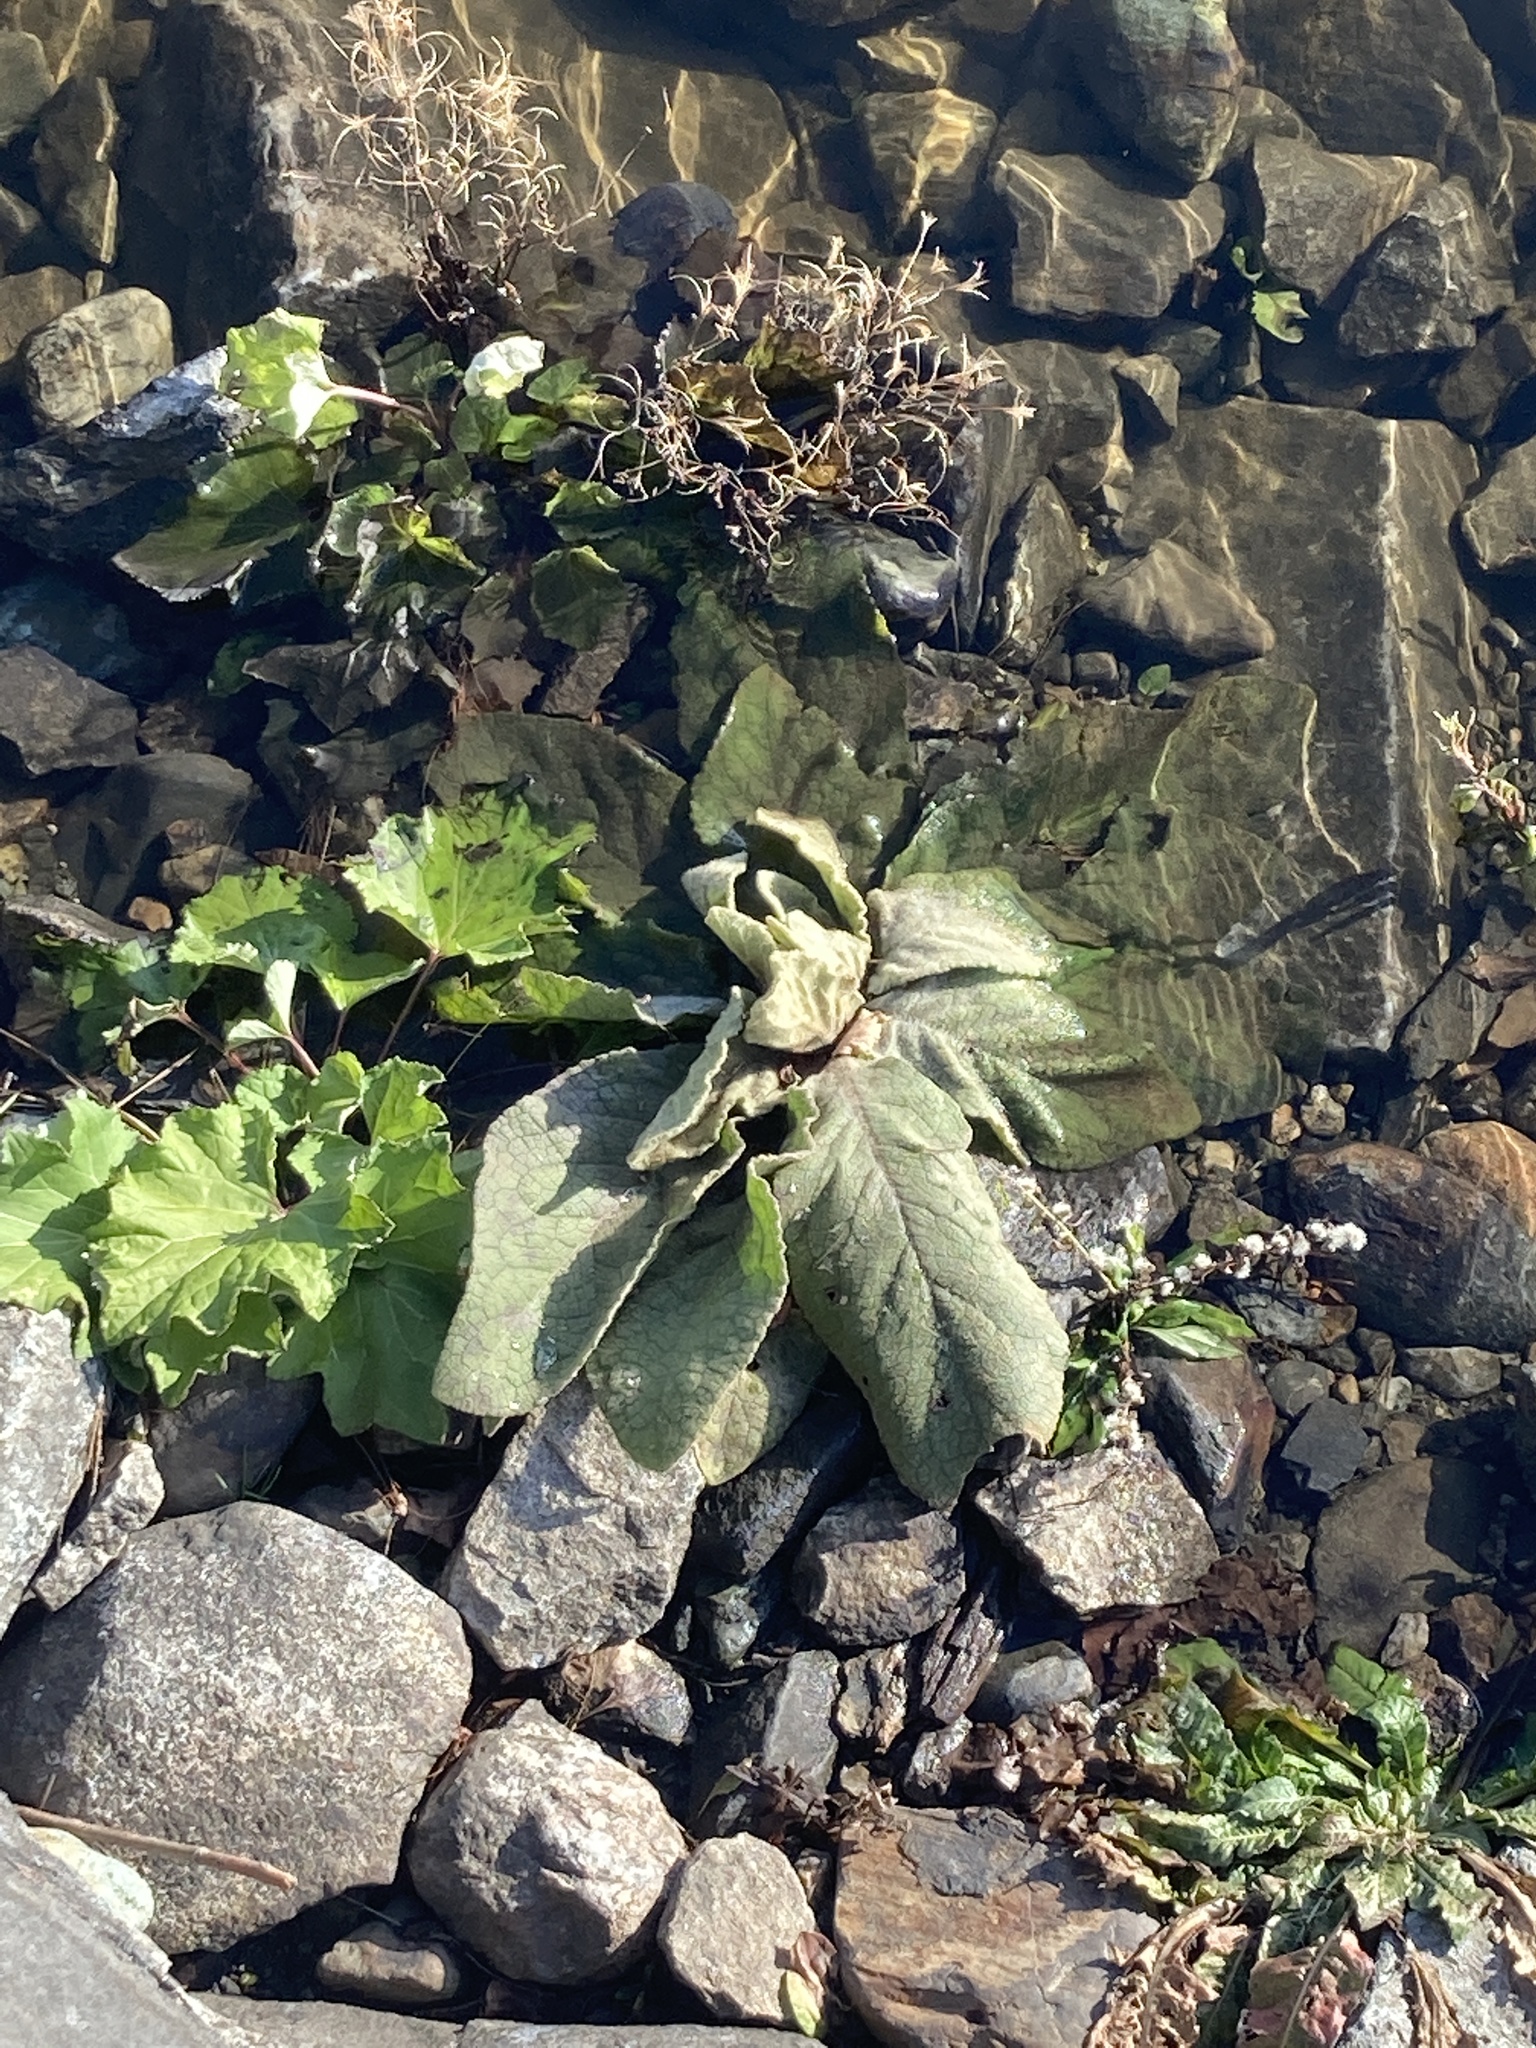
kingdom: Plantae
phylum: Tracheophyta
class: Magnoliopsida
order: Lamiales
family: Scrophulariaceae
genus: Verbascum
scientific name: Verbascum thapsus
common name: Common mullein
